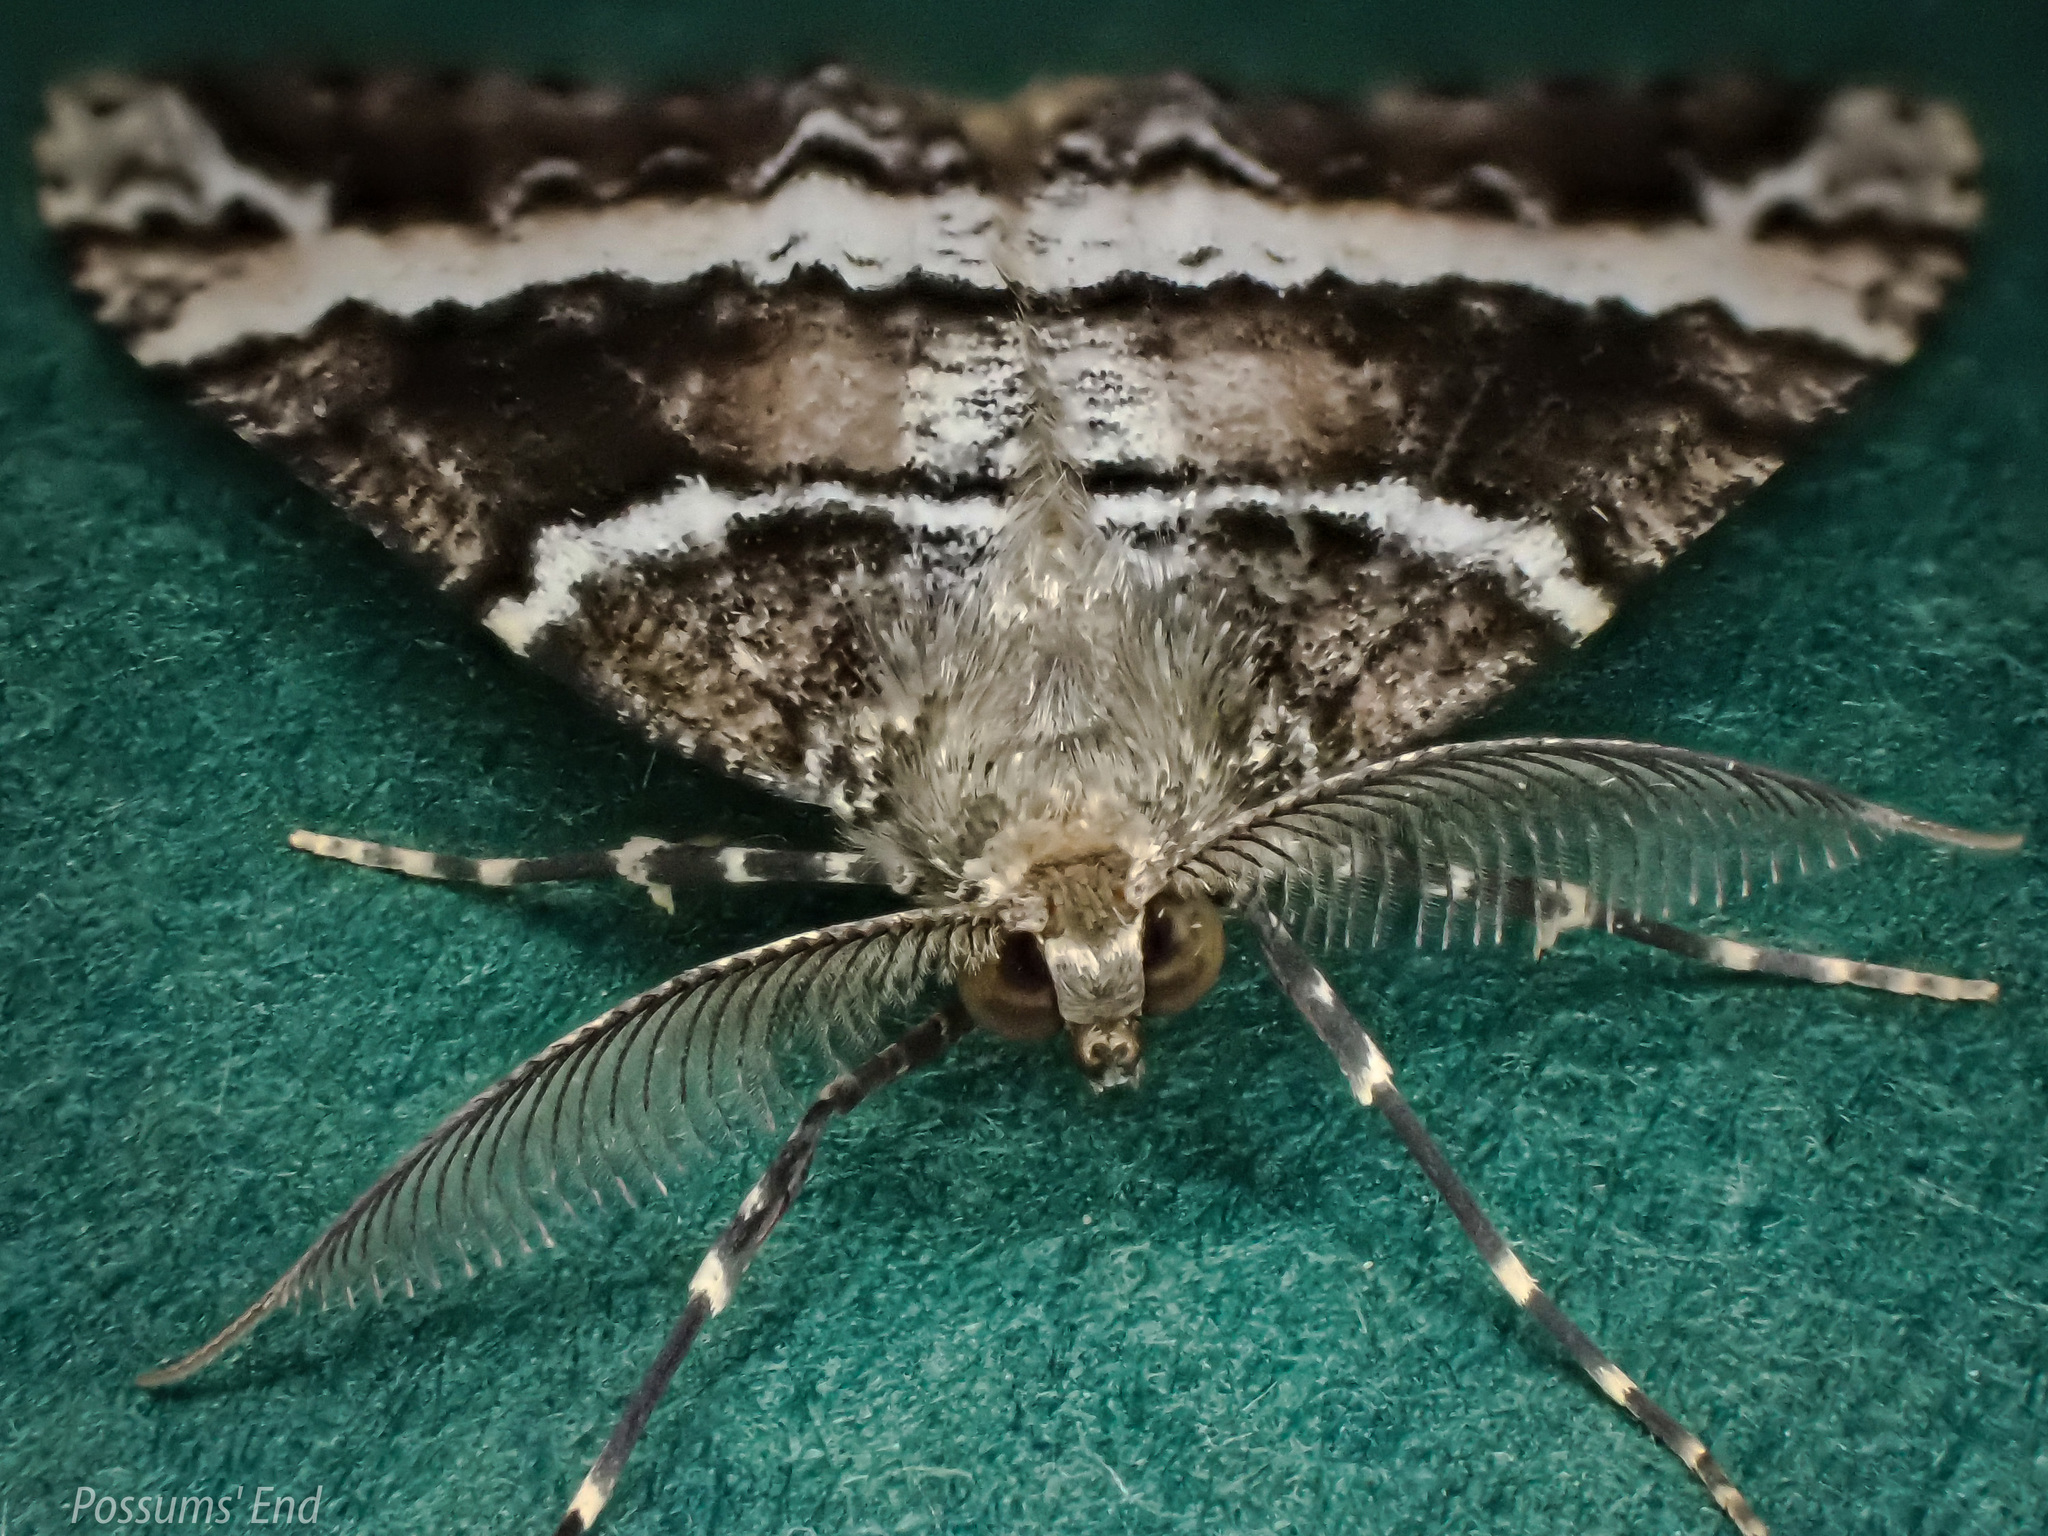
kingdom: Animalia
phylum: Arthropoda
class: Insecta
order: Lepidoptera
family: Geometridae
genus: Pseudocoremia
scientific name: Pseudocoremia
